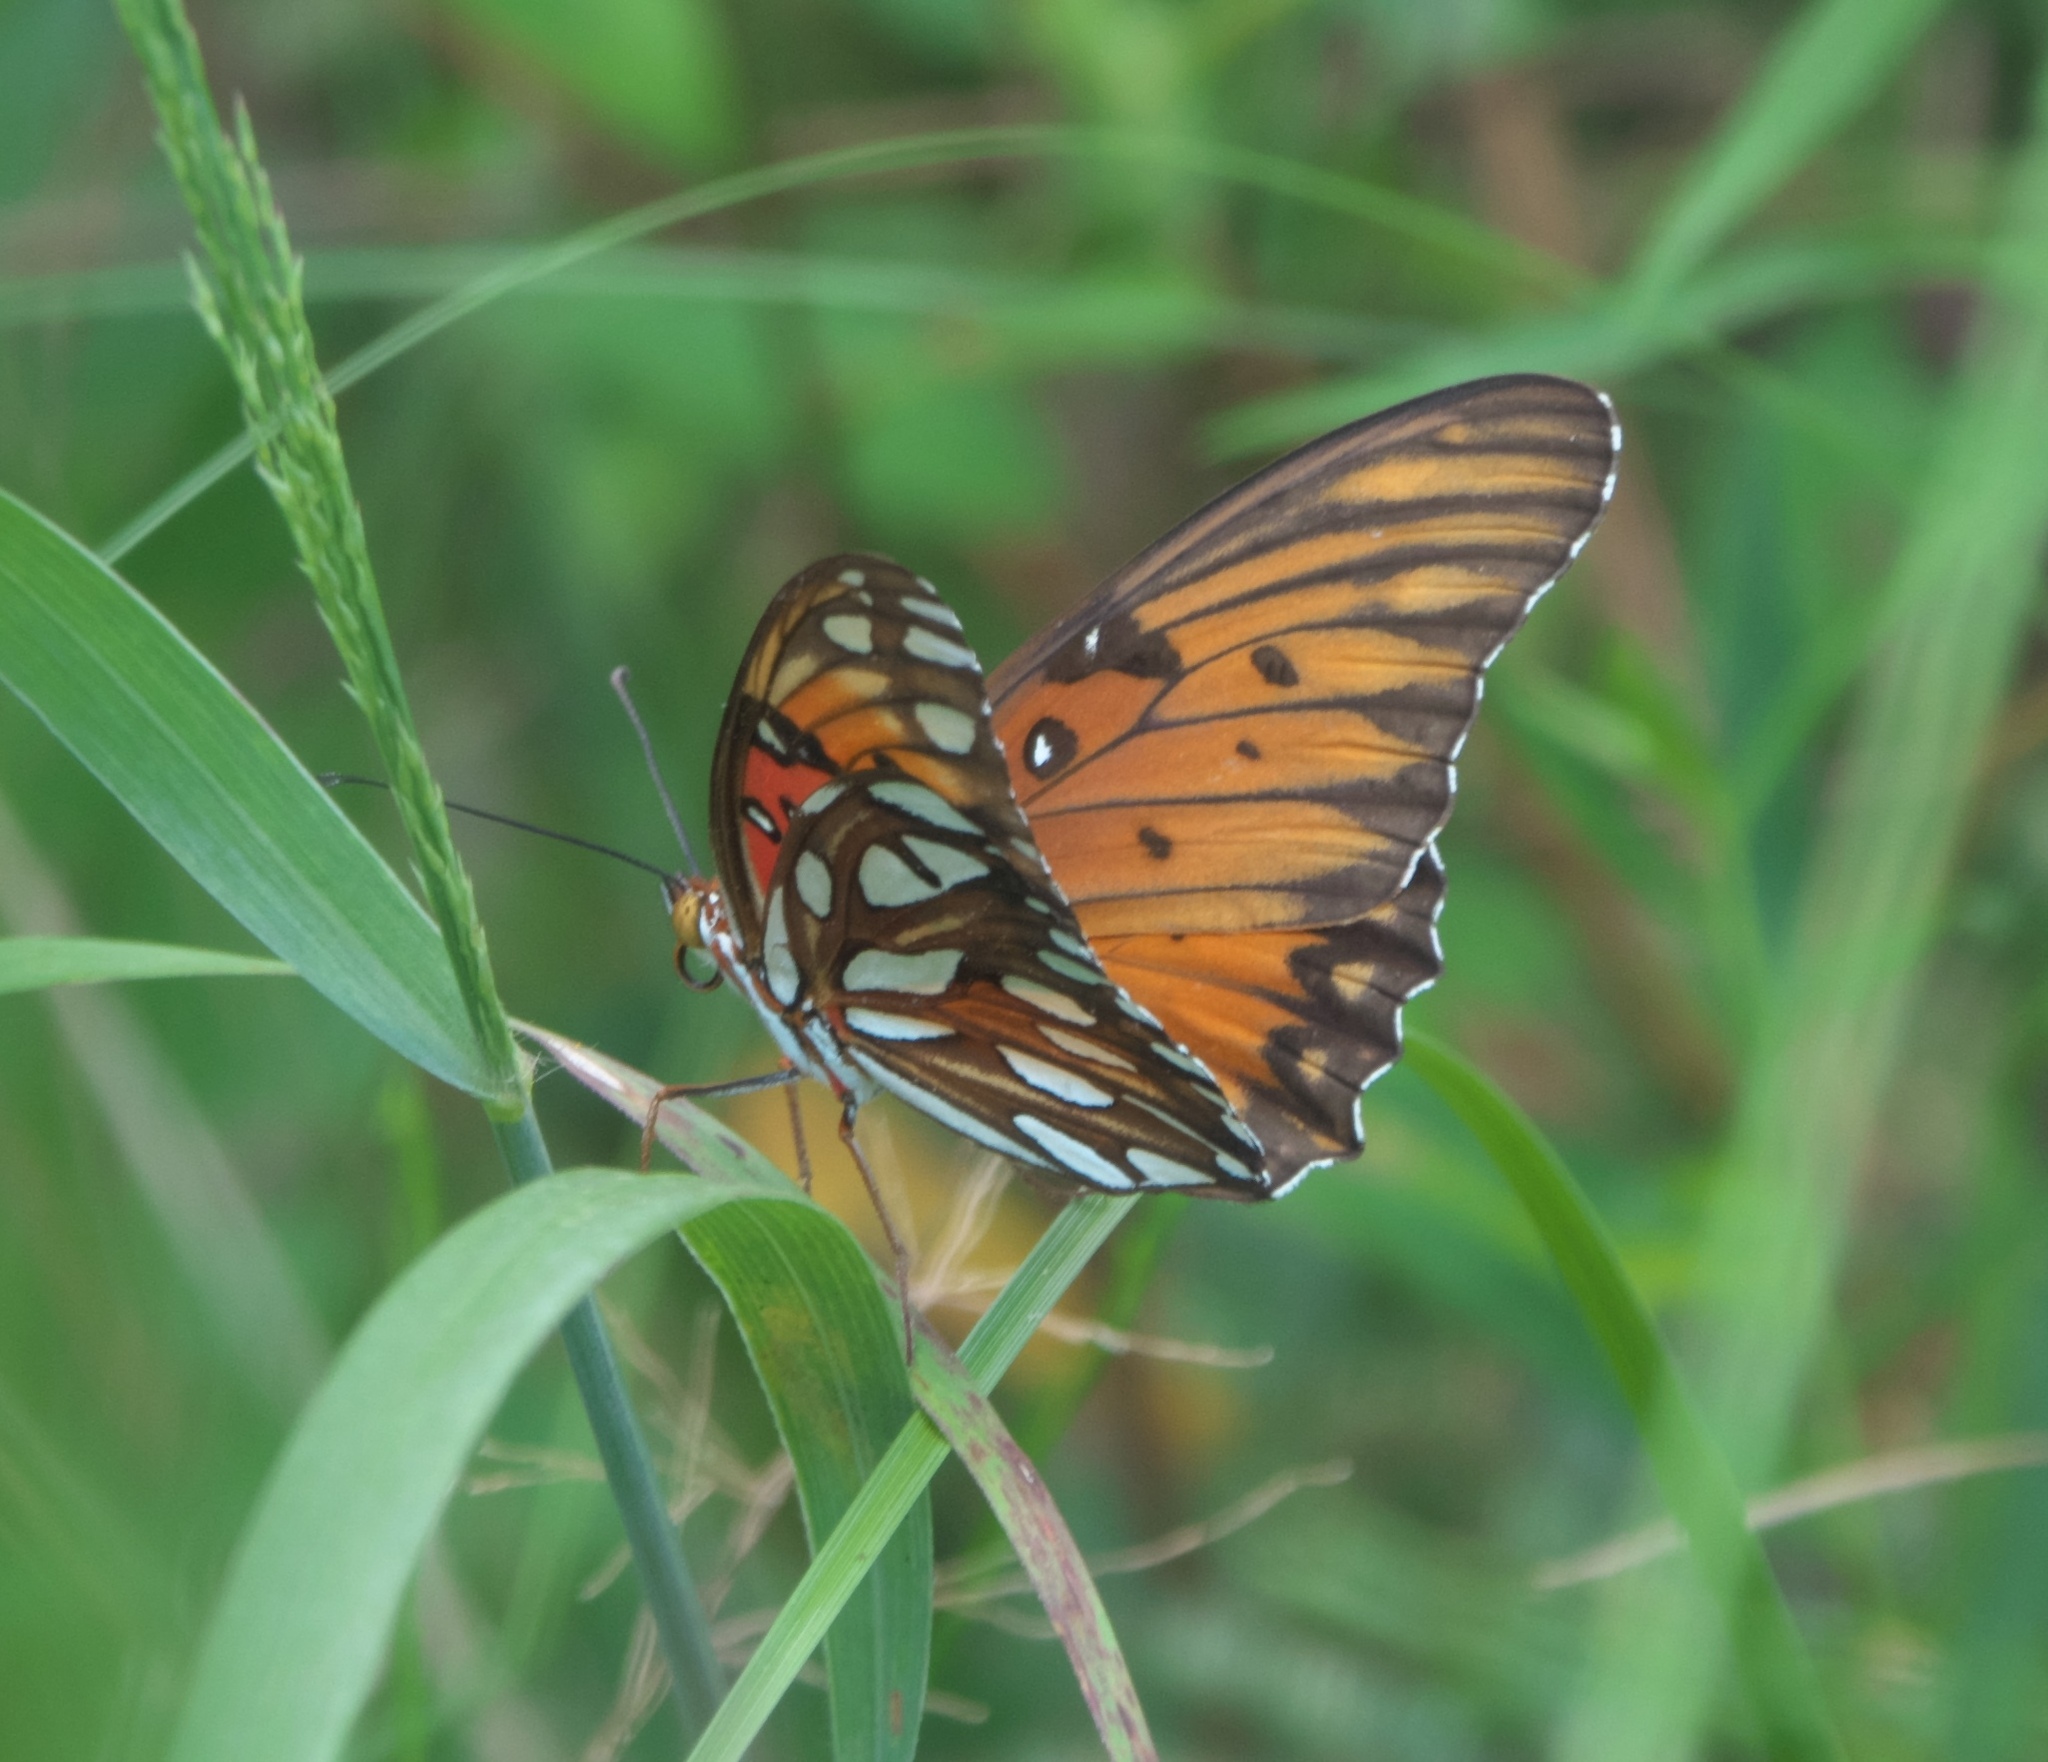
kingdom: Animalia
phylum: Arthropoda
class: Insecta
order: Lepidoptera
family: Nymphalidae
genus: Dione
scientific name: Dione vanillae
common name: Gulf fritillary
